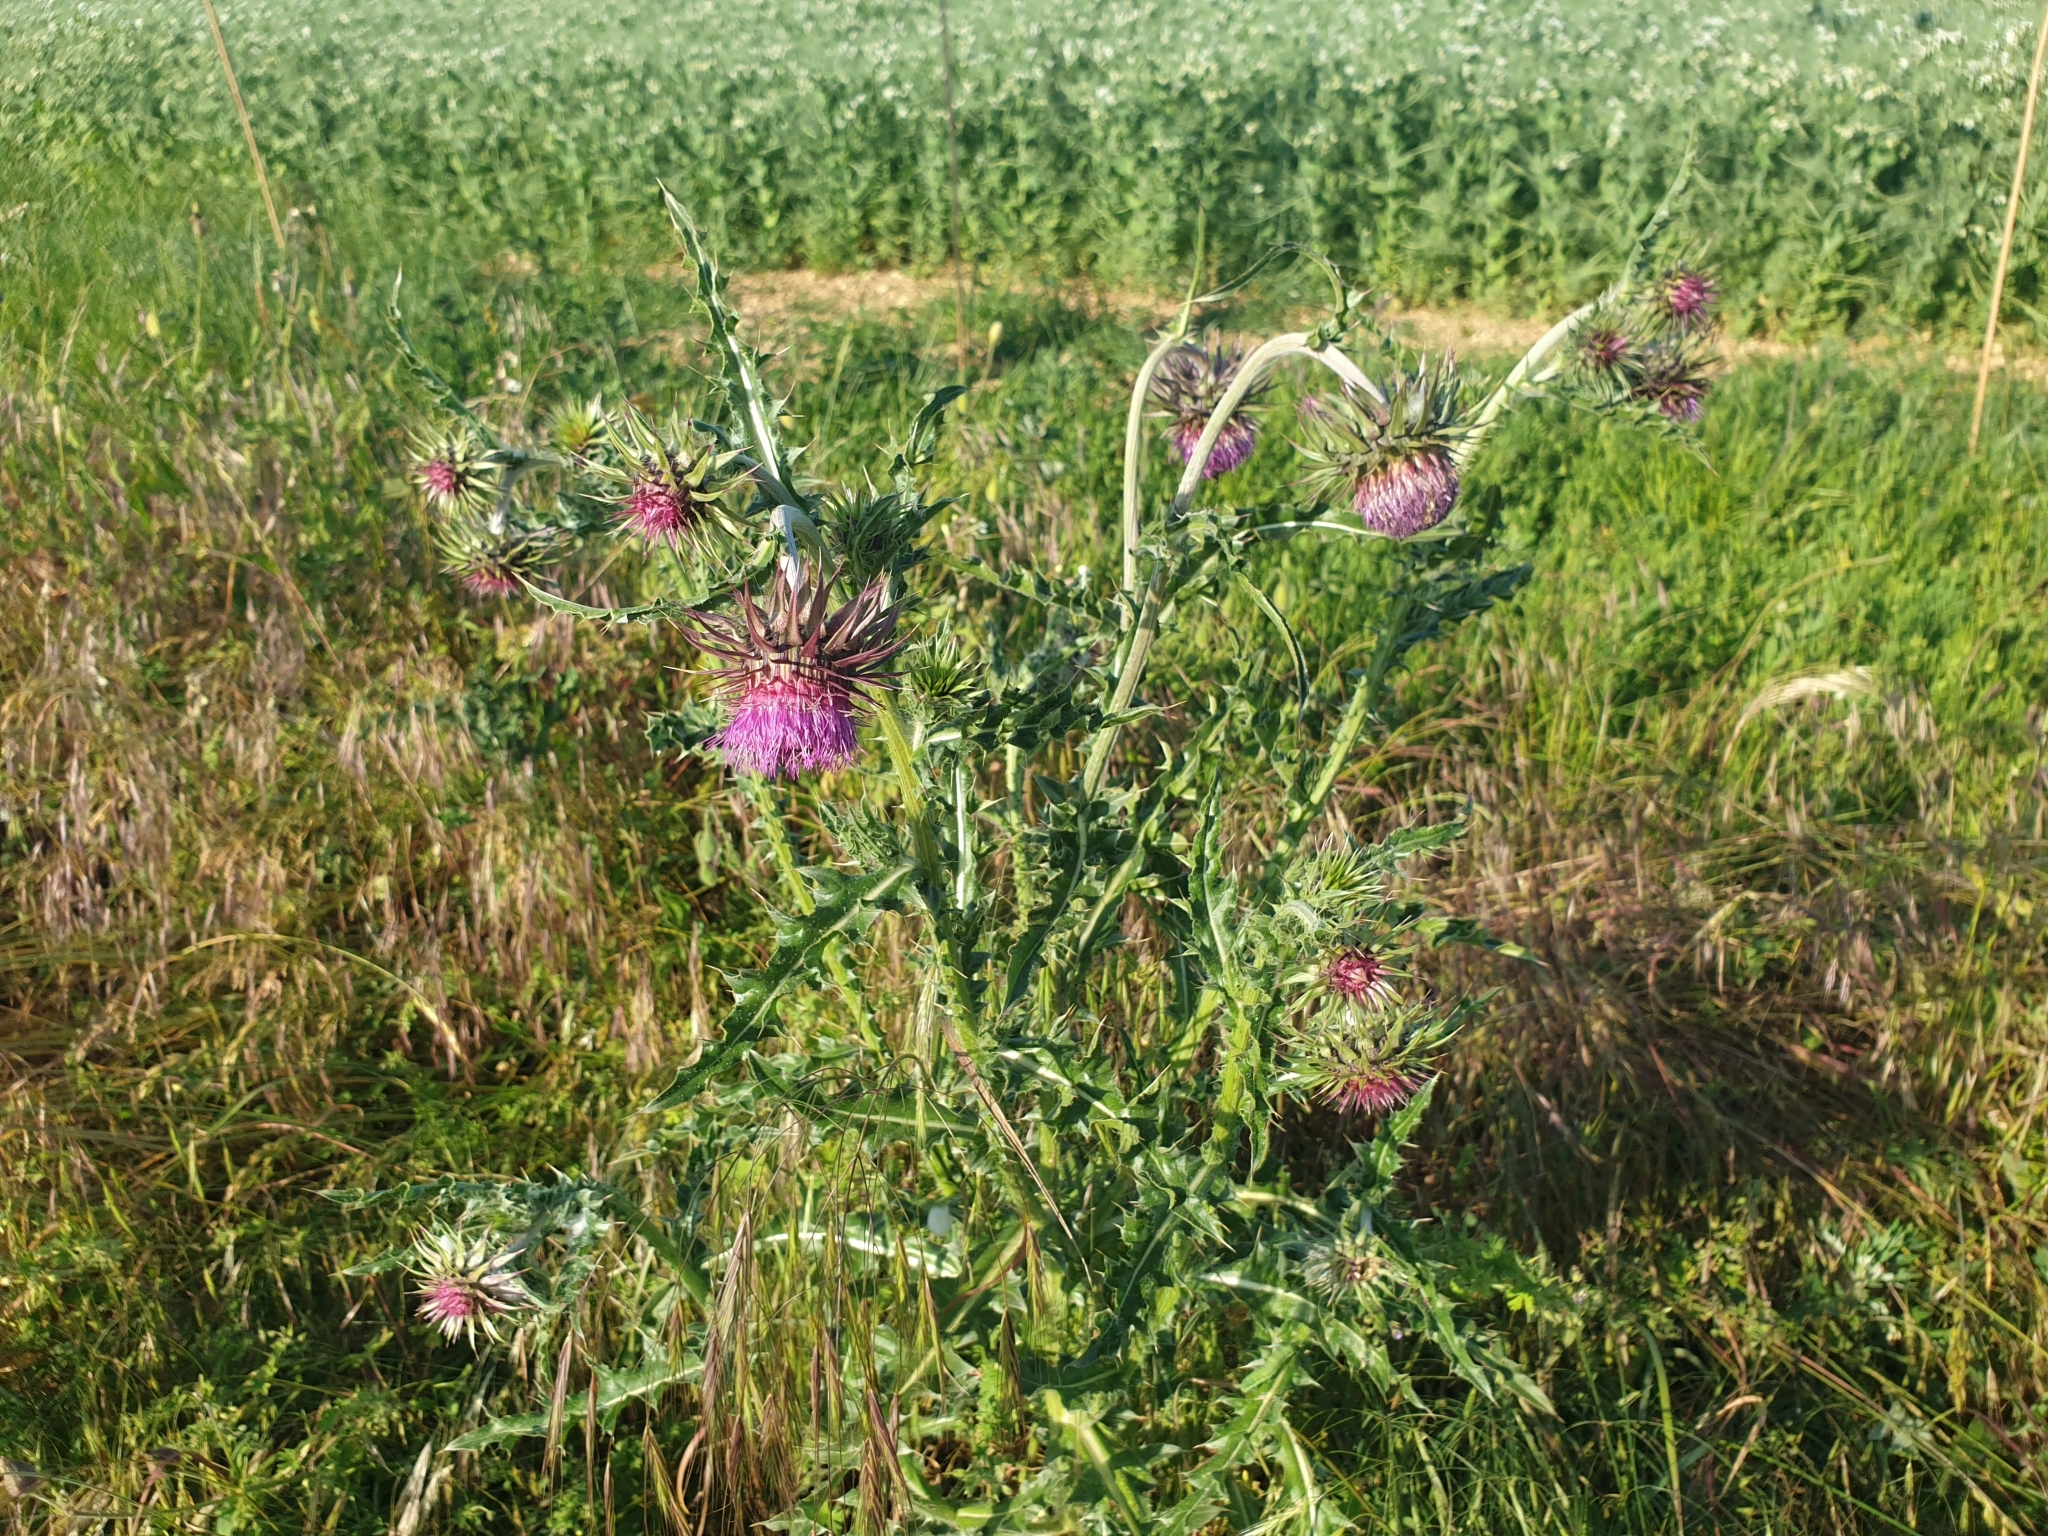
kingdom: Plantae
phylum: Tracheophyta
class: Magnoliopsida
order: Asterales
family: Asteraceae
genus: Carduus
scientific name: Carduus nutans
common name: Musk thistle
